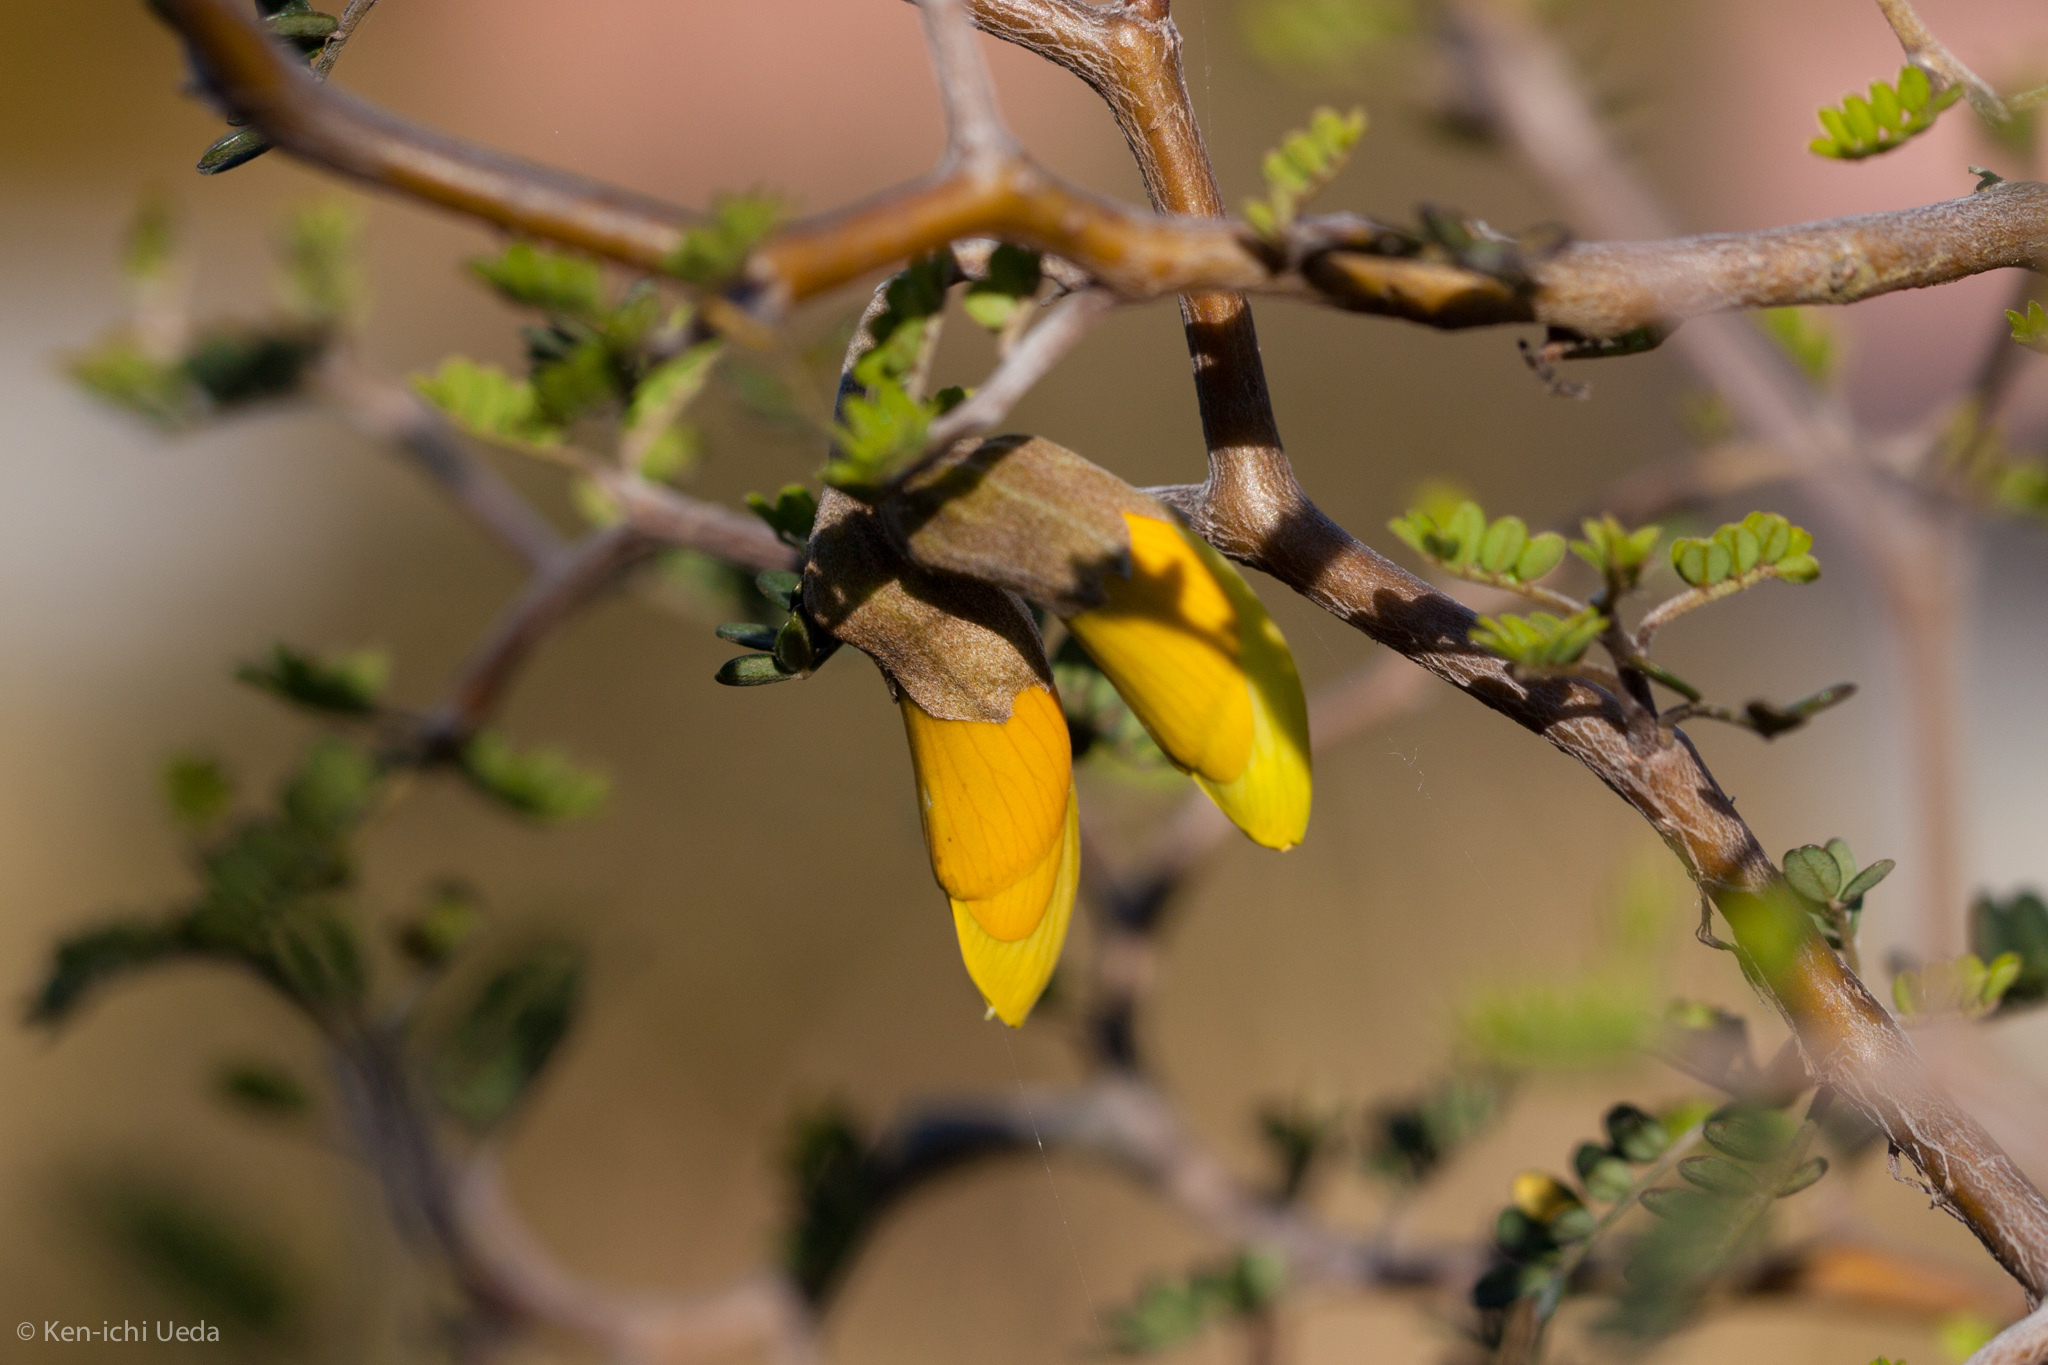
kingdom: Plantae
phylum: Tracheophyta
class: Magnoliopsida
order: Fabales
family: Fabaceae
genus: Sophora
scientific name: Sophora prostrata
